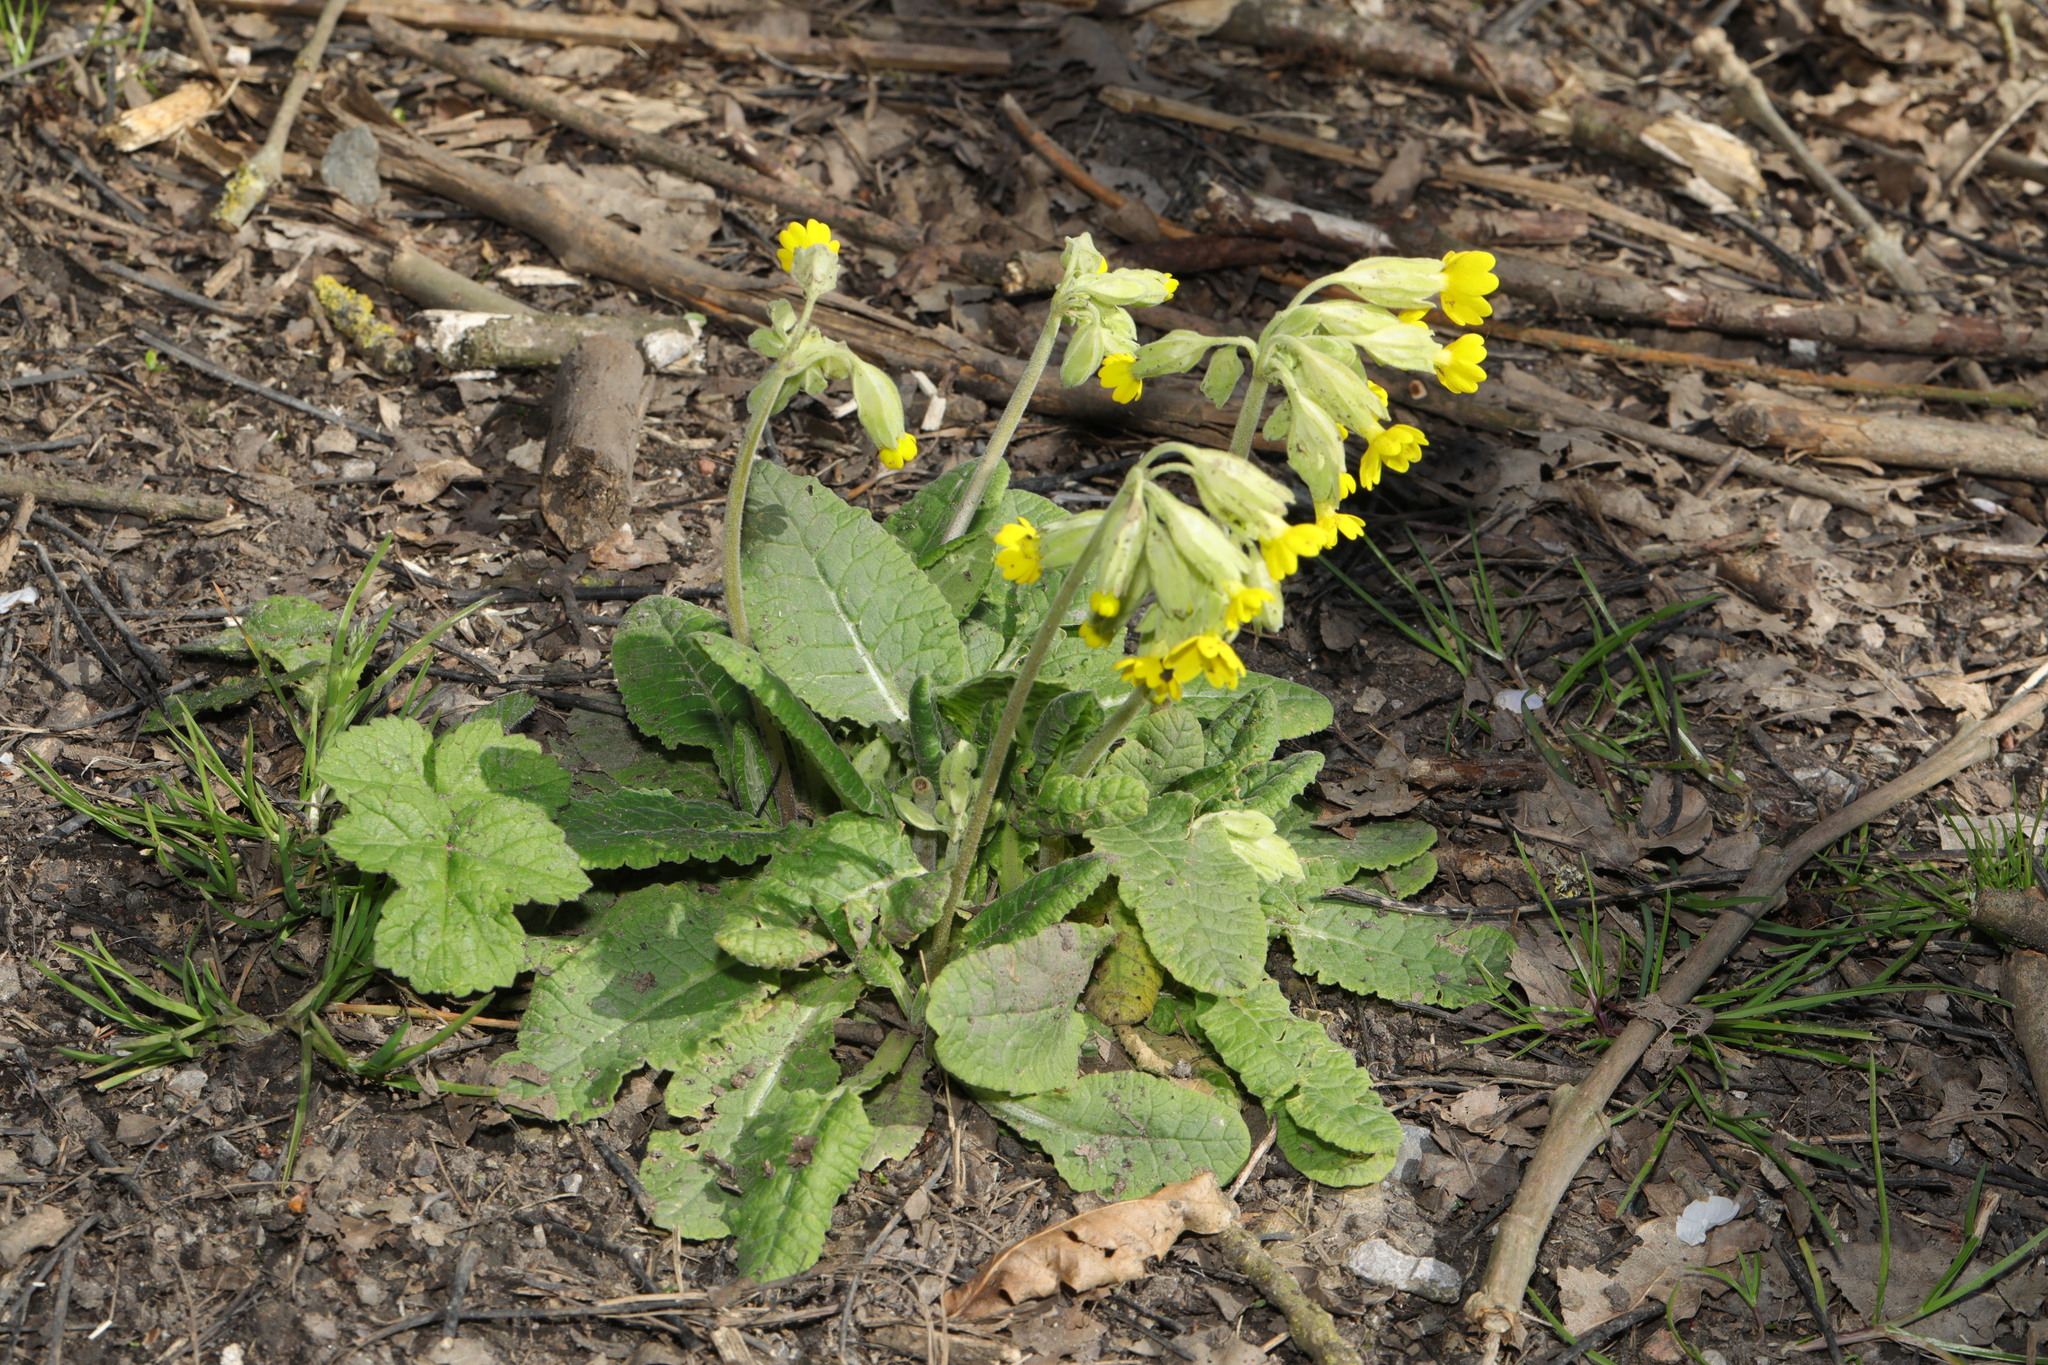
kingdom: Plantae
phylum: Tracheophyta
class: Magnoliopsida
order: Ericales
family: Primulaceae
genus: Primula
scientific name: Primula veris
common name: Cowslip
